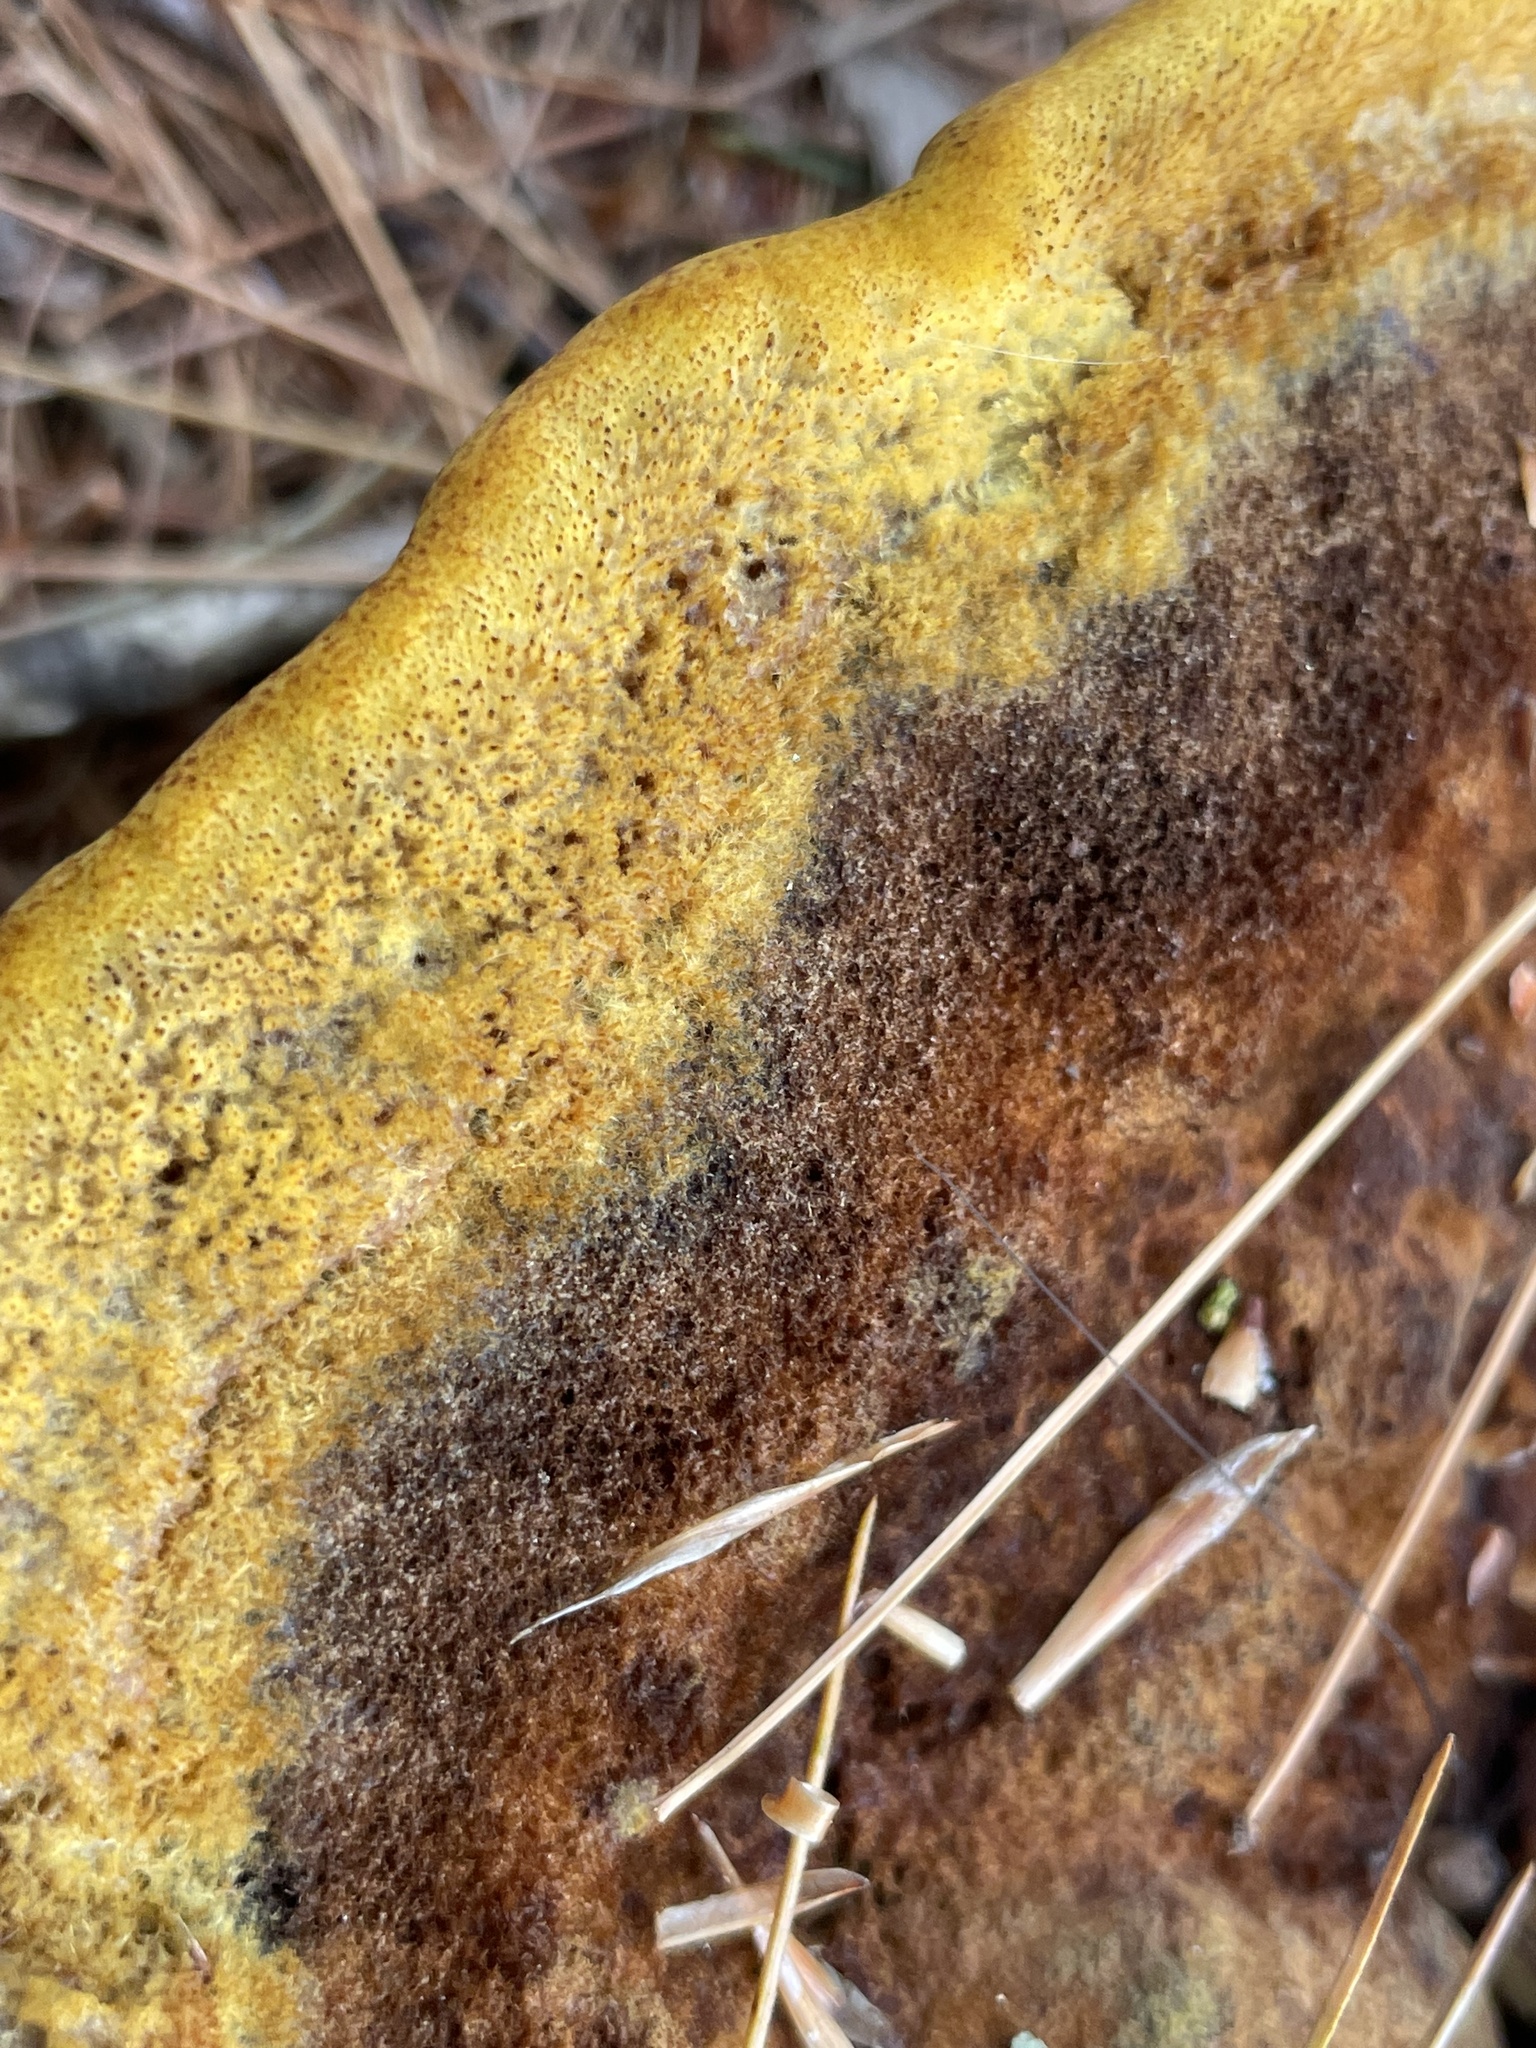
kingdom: Fungi
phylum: Basidiomycota
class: Agaricomycetes
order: Polyporales
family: Laetiporaceae
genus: Phaeolus
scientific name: Phaeolus schweinitzii
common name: Dyer's mazegill
